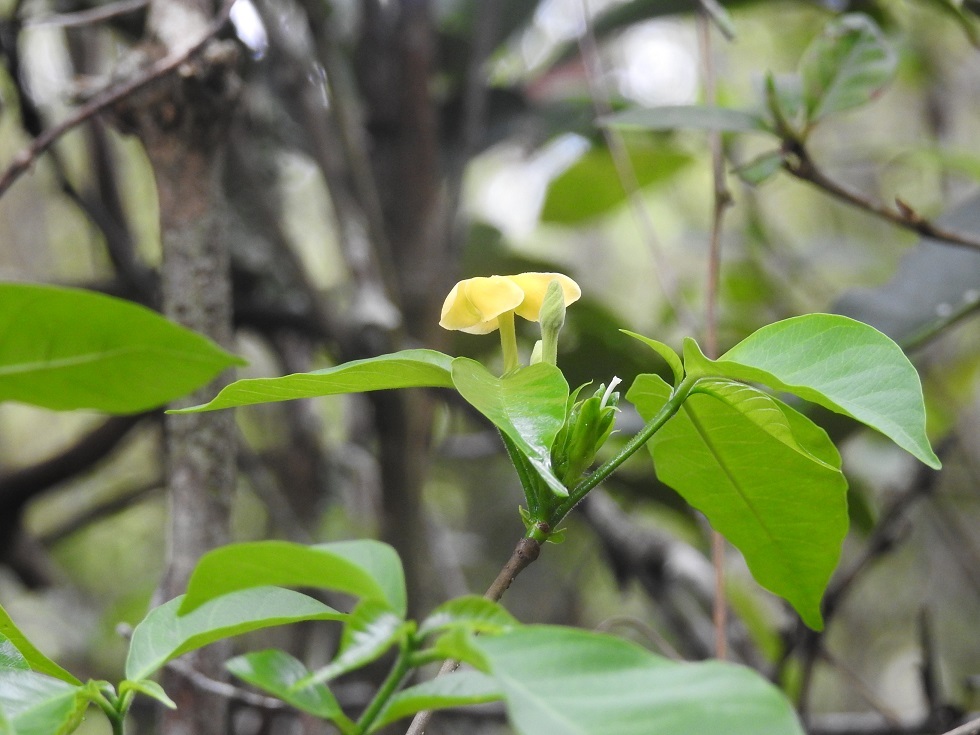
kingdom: Plantae
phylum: Tracheophyta
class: Magnoliopsida
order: Gentianales
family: Apocynaceae
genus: Tabernaemontana
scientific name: Tabernaemontana hannae
